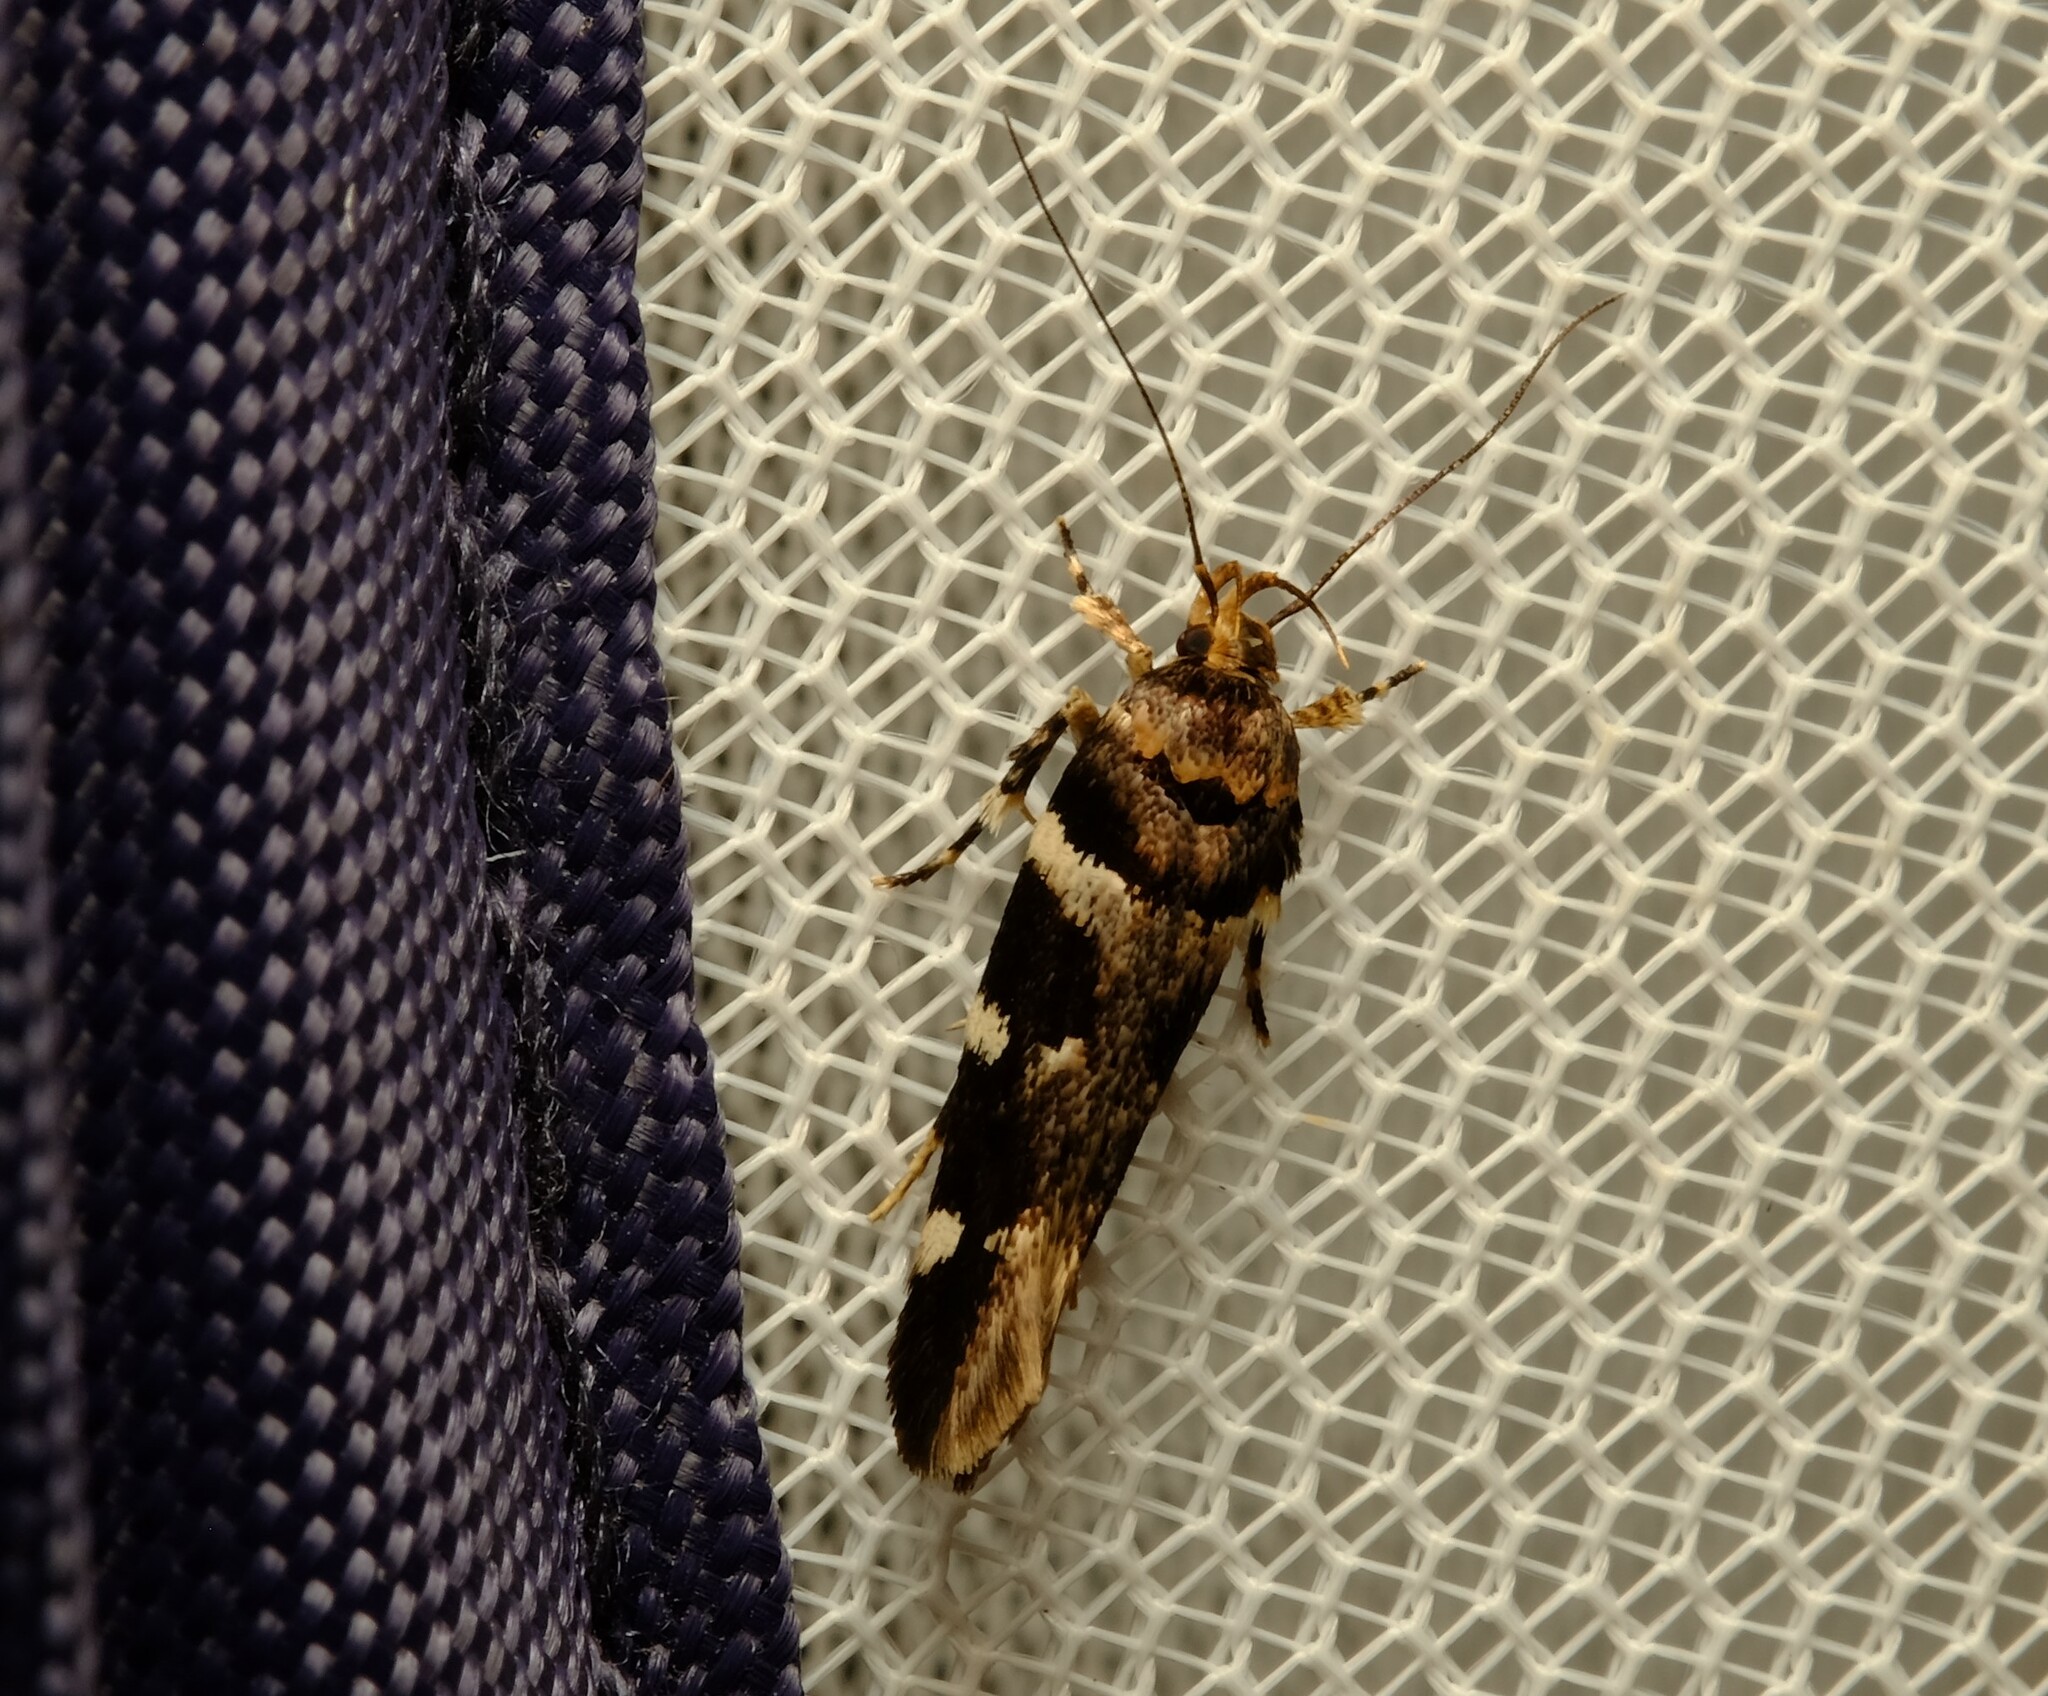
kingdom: Animalia
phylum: Arthropoda
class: Insecta
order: Lepidoptera
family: Cosmopterigidae
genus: Macrobathra
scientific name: Macrobathra ceraunobola
